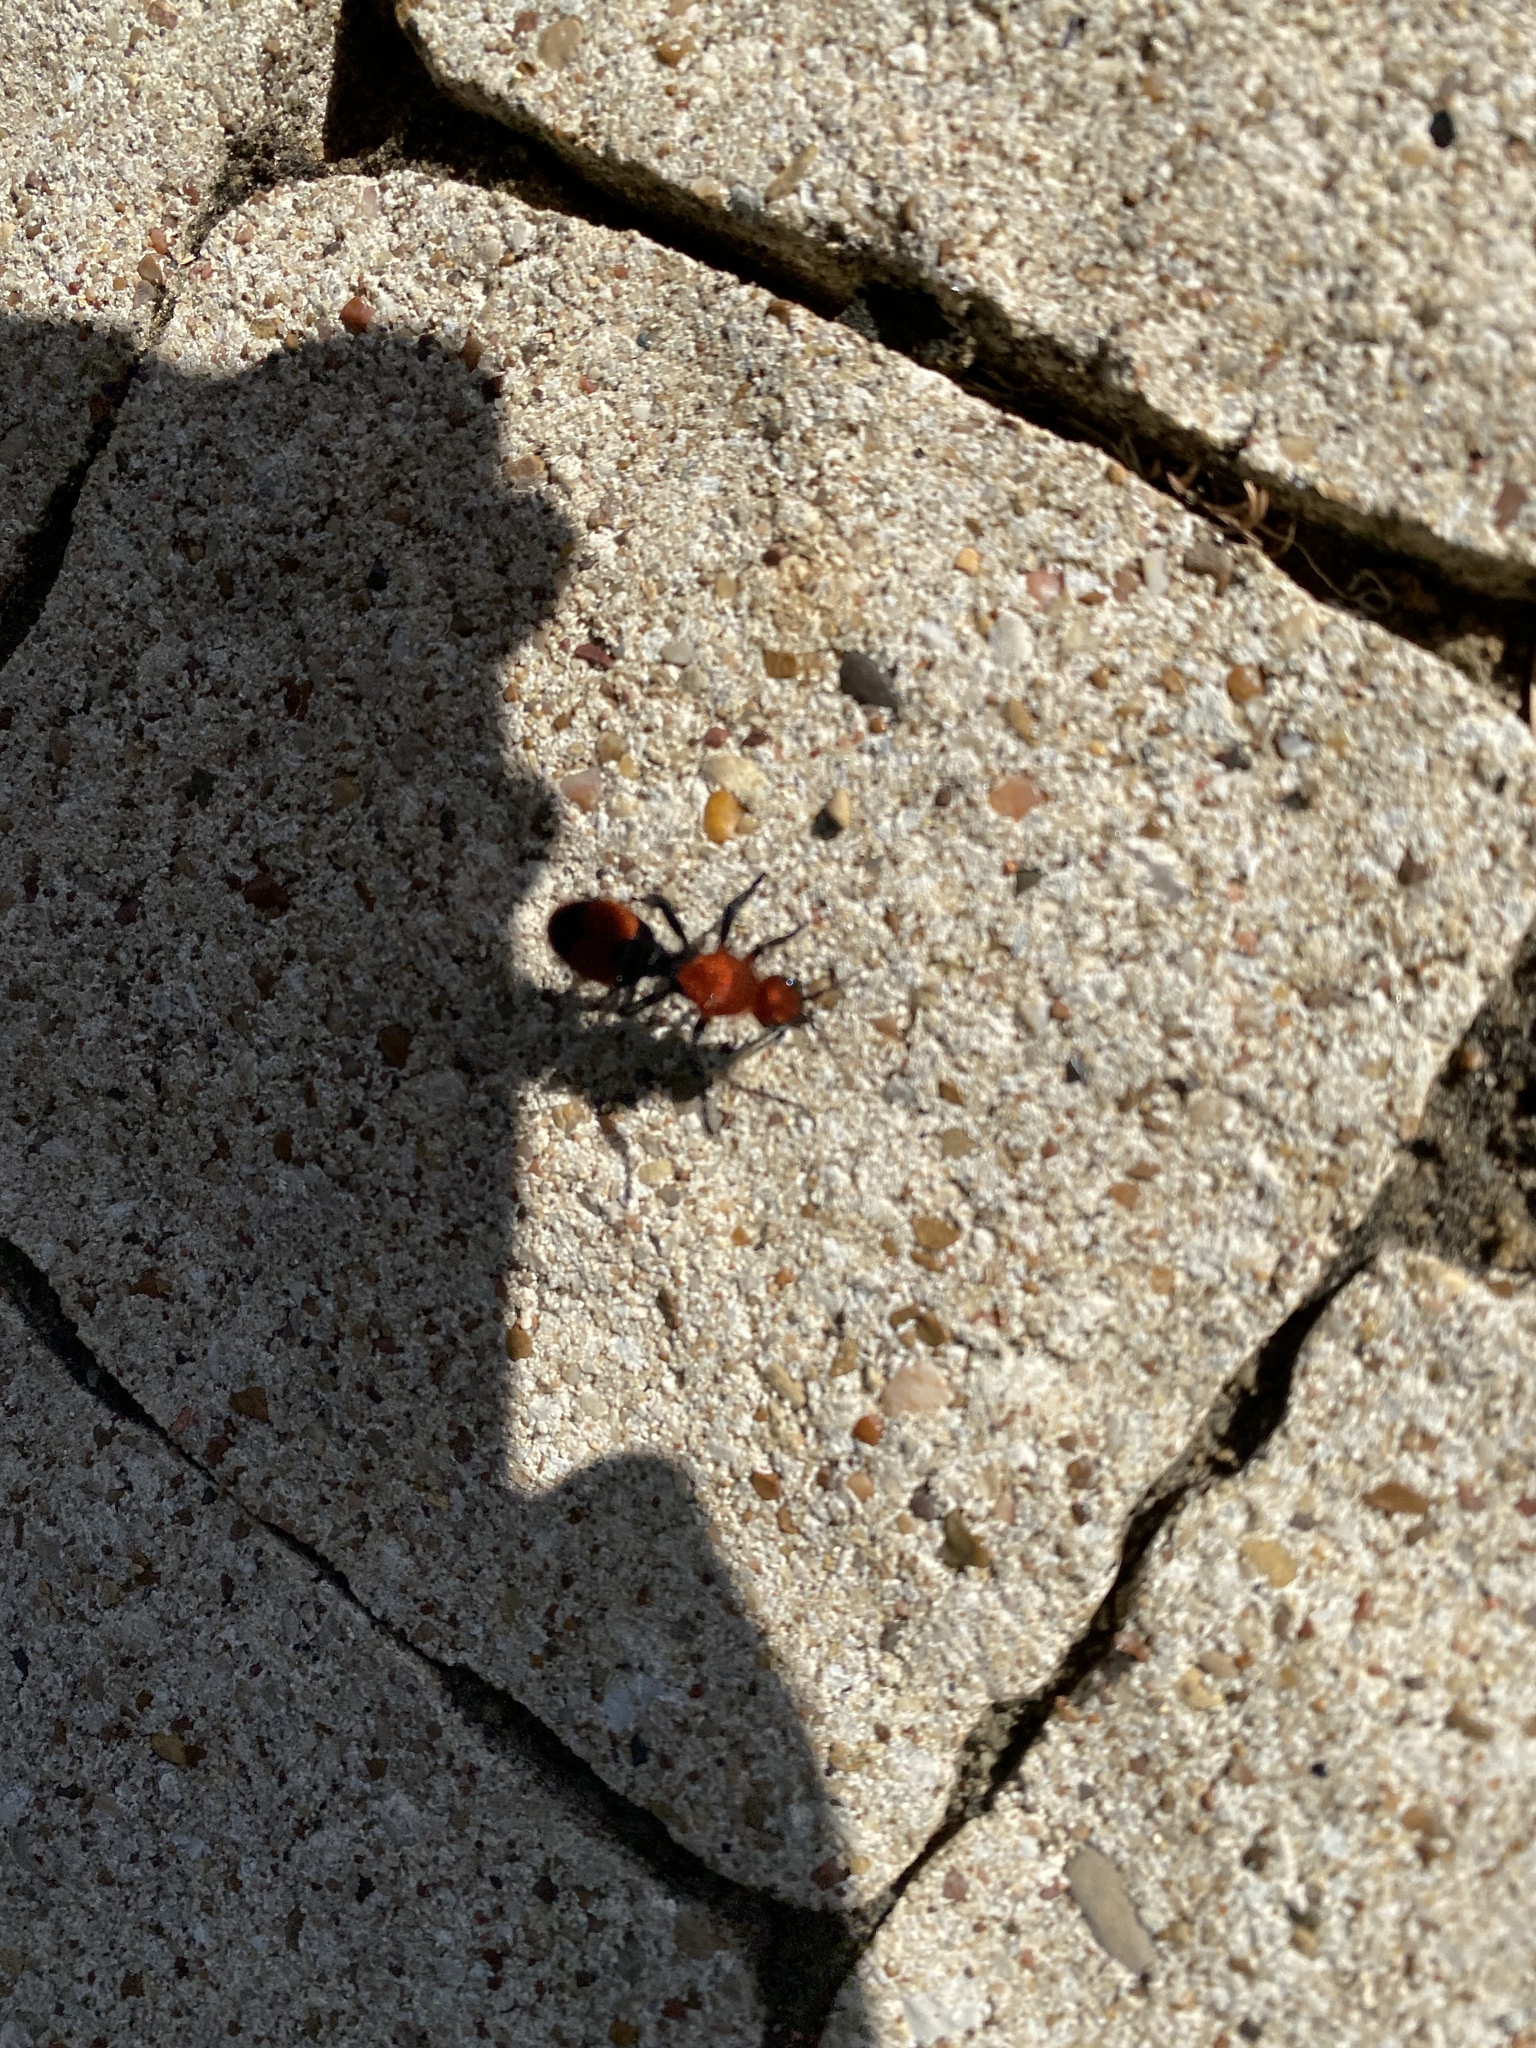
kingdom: Animalia
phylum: Arthropoda
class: Insecta
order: Hymenoptera
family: Mutillidae
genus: Dasymutilla
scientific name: Dasymutilla occidentalis
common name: Common eastern velvet ant
